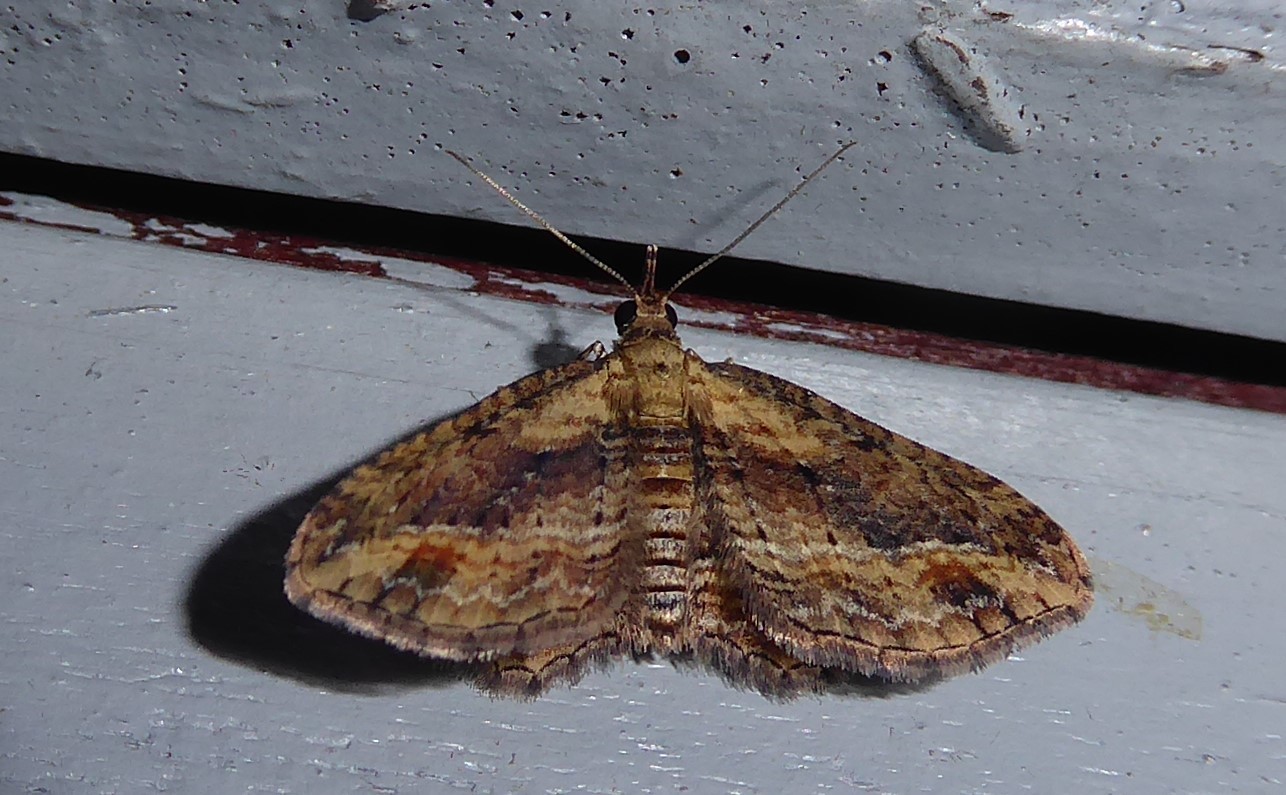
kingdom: Animalia
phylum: Arthropoda
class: Insecta
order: Lepidoptera
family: Geometridae
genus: Chloroclystis
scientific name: Chloroclystis filata
